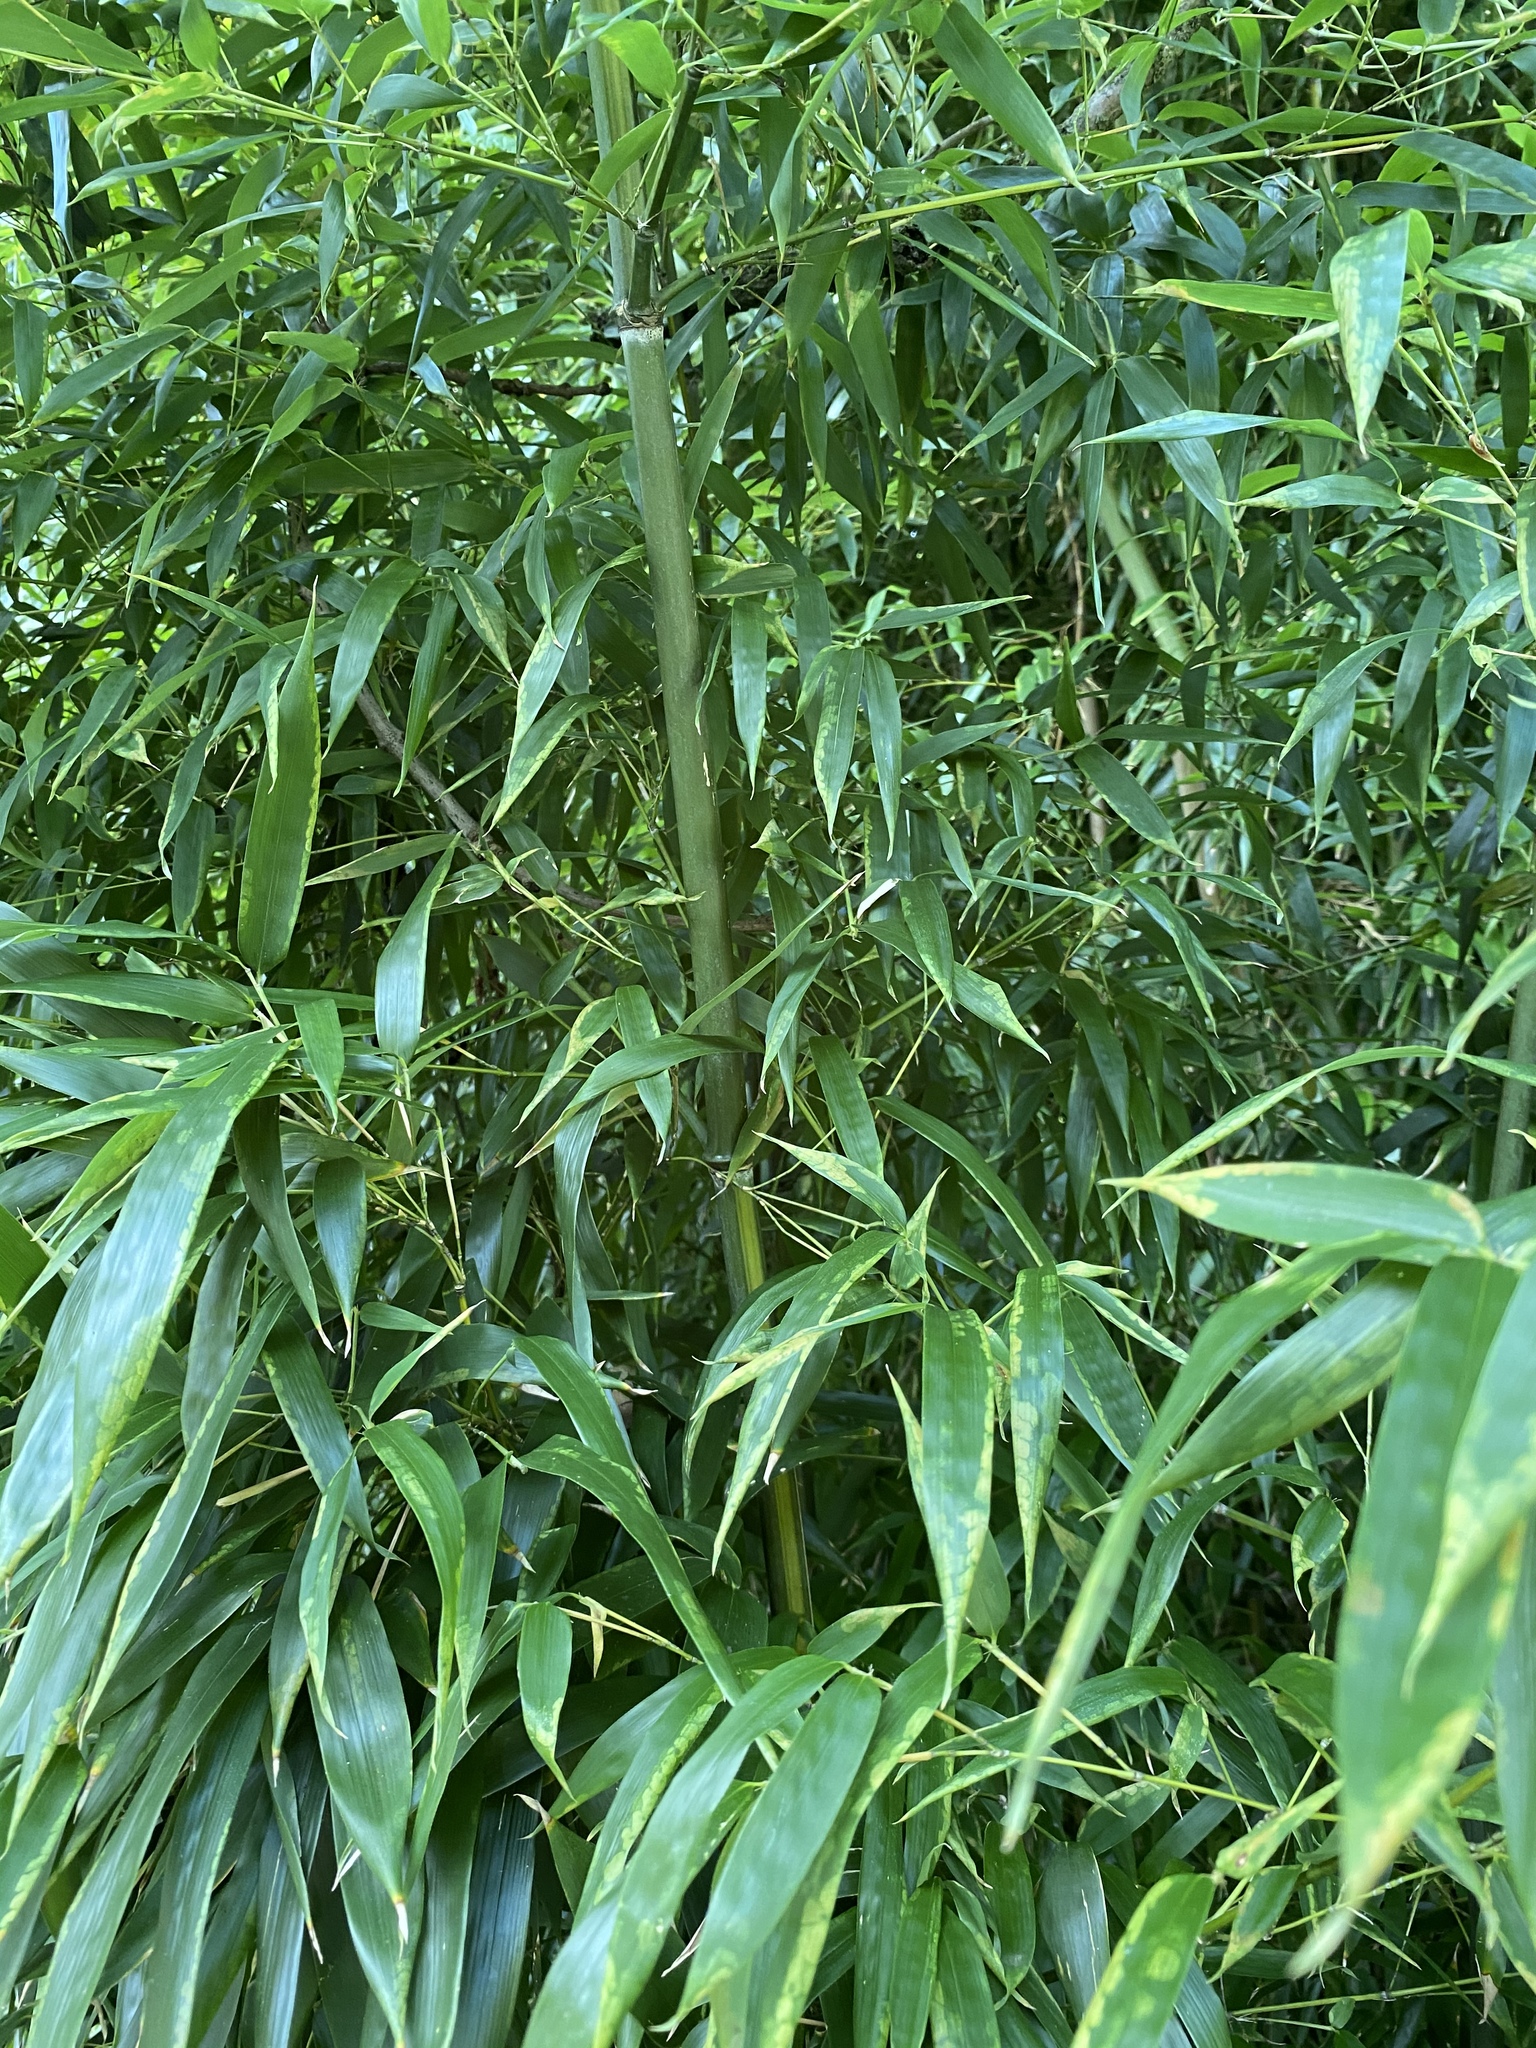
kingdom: Plantae
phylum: Tracheophyta
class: Liliopsida
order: Poales
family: Poaceae
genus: Phyllostachys
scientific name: Phyllostachys aureosulcata
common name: Yellow groove bamboo
